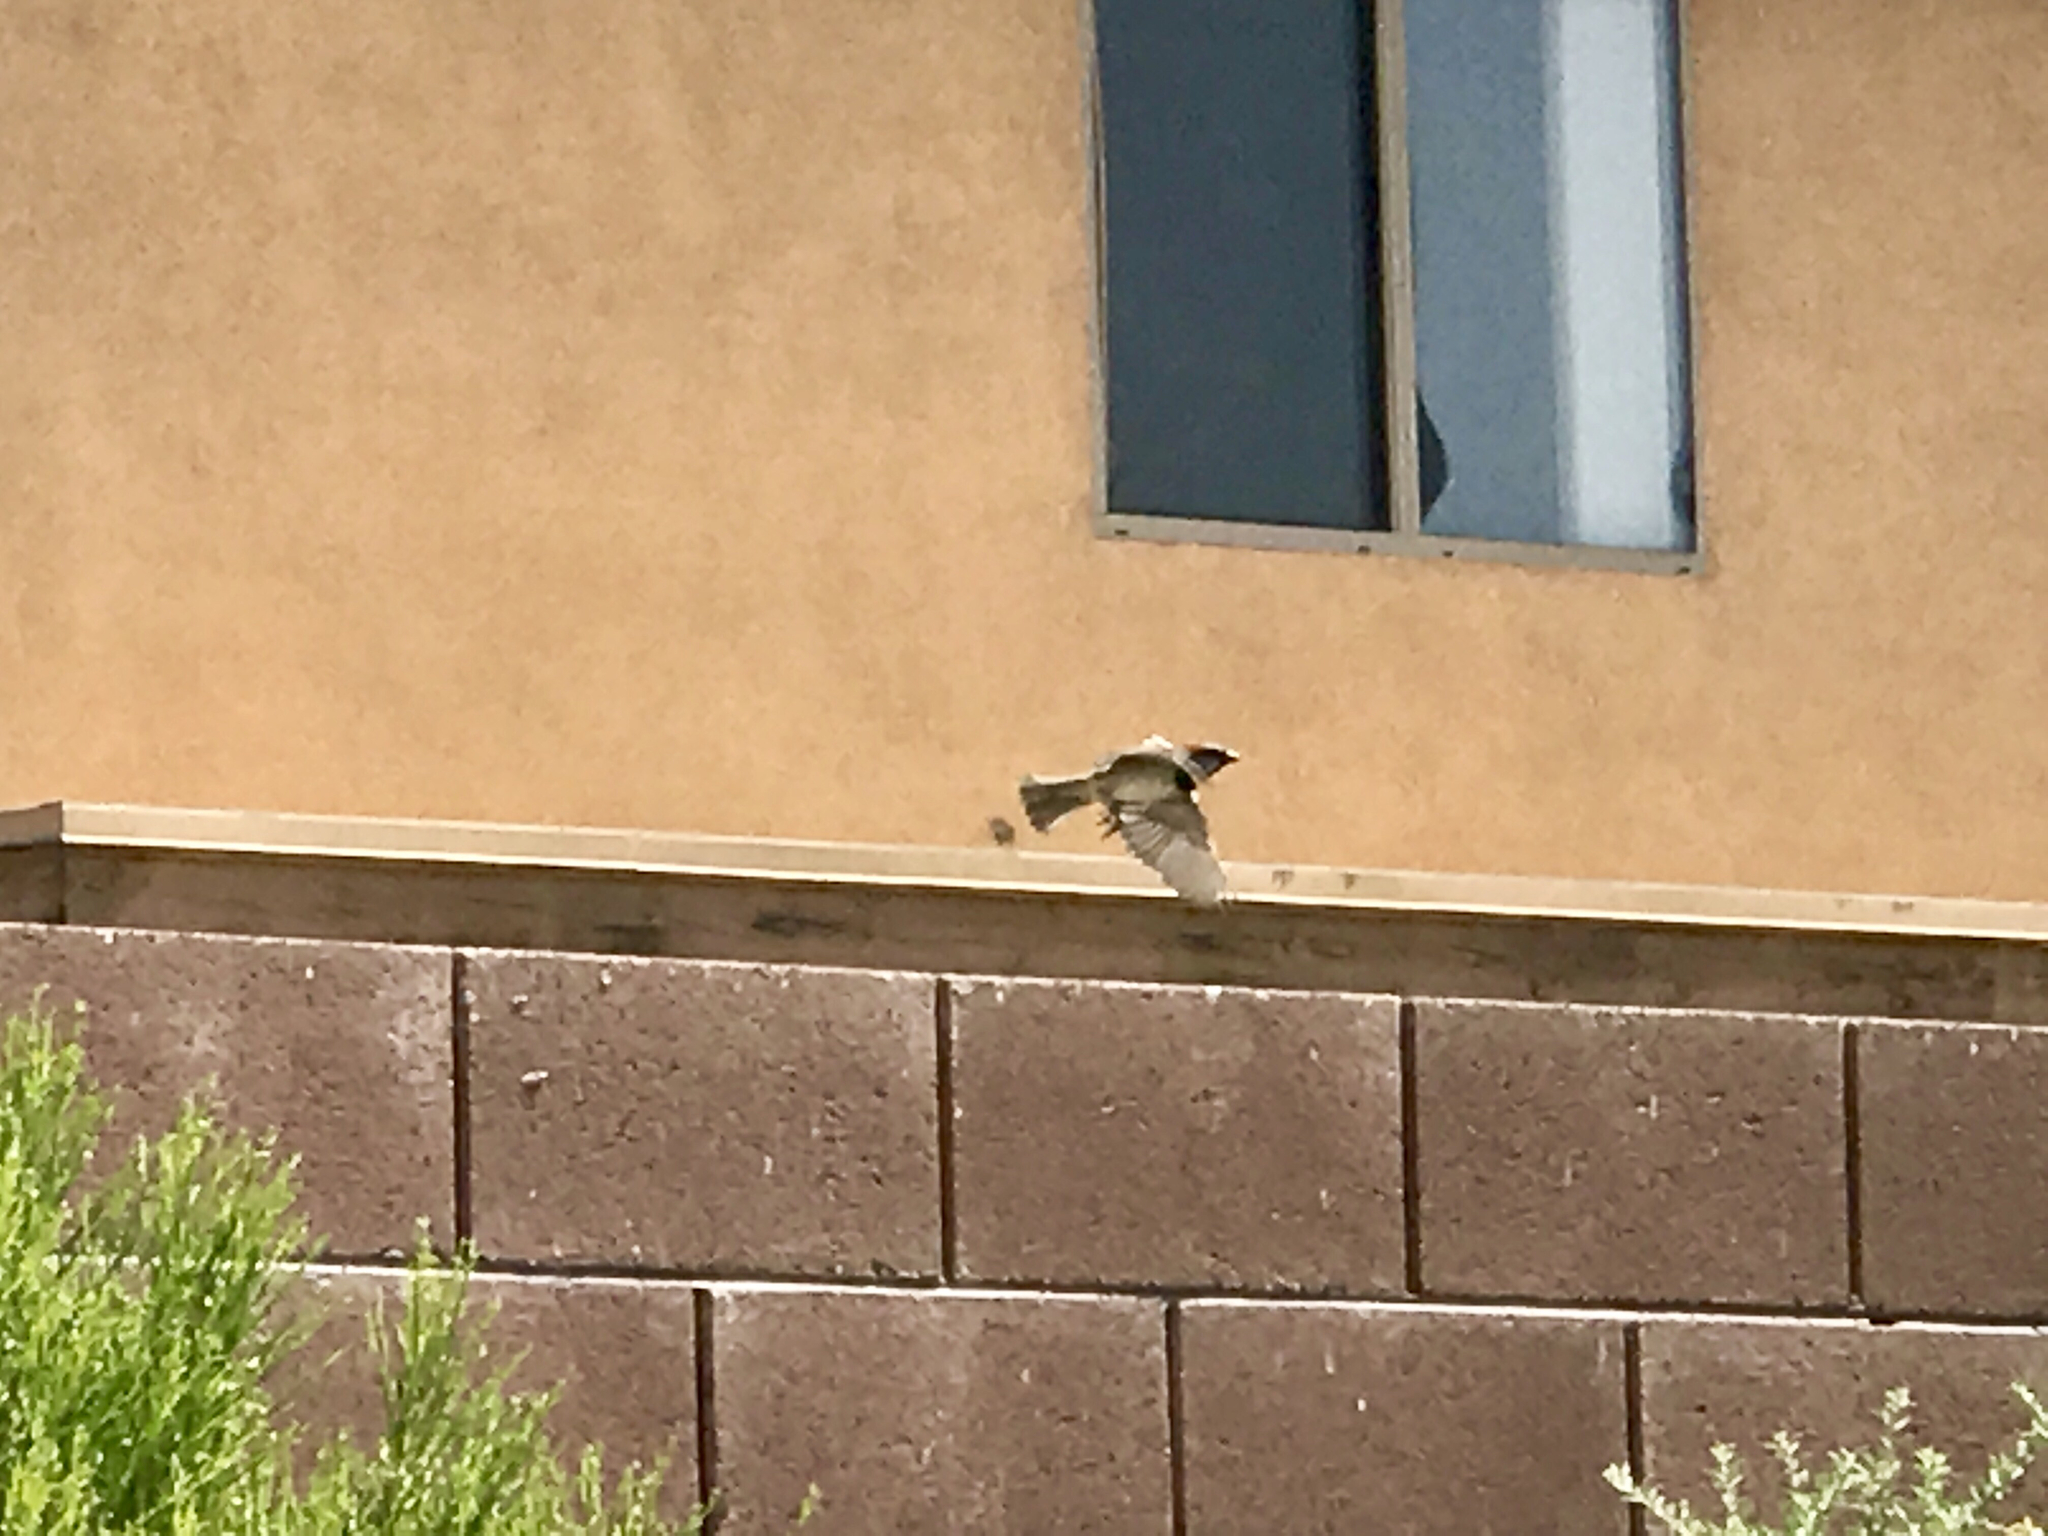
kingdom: Animalia
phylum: Chordata
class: Aves
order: Passeriformes
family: Passeridae
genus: Passer
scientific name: Passer domesticus
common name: House sparrow
